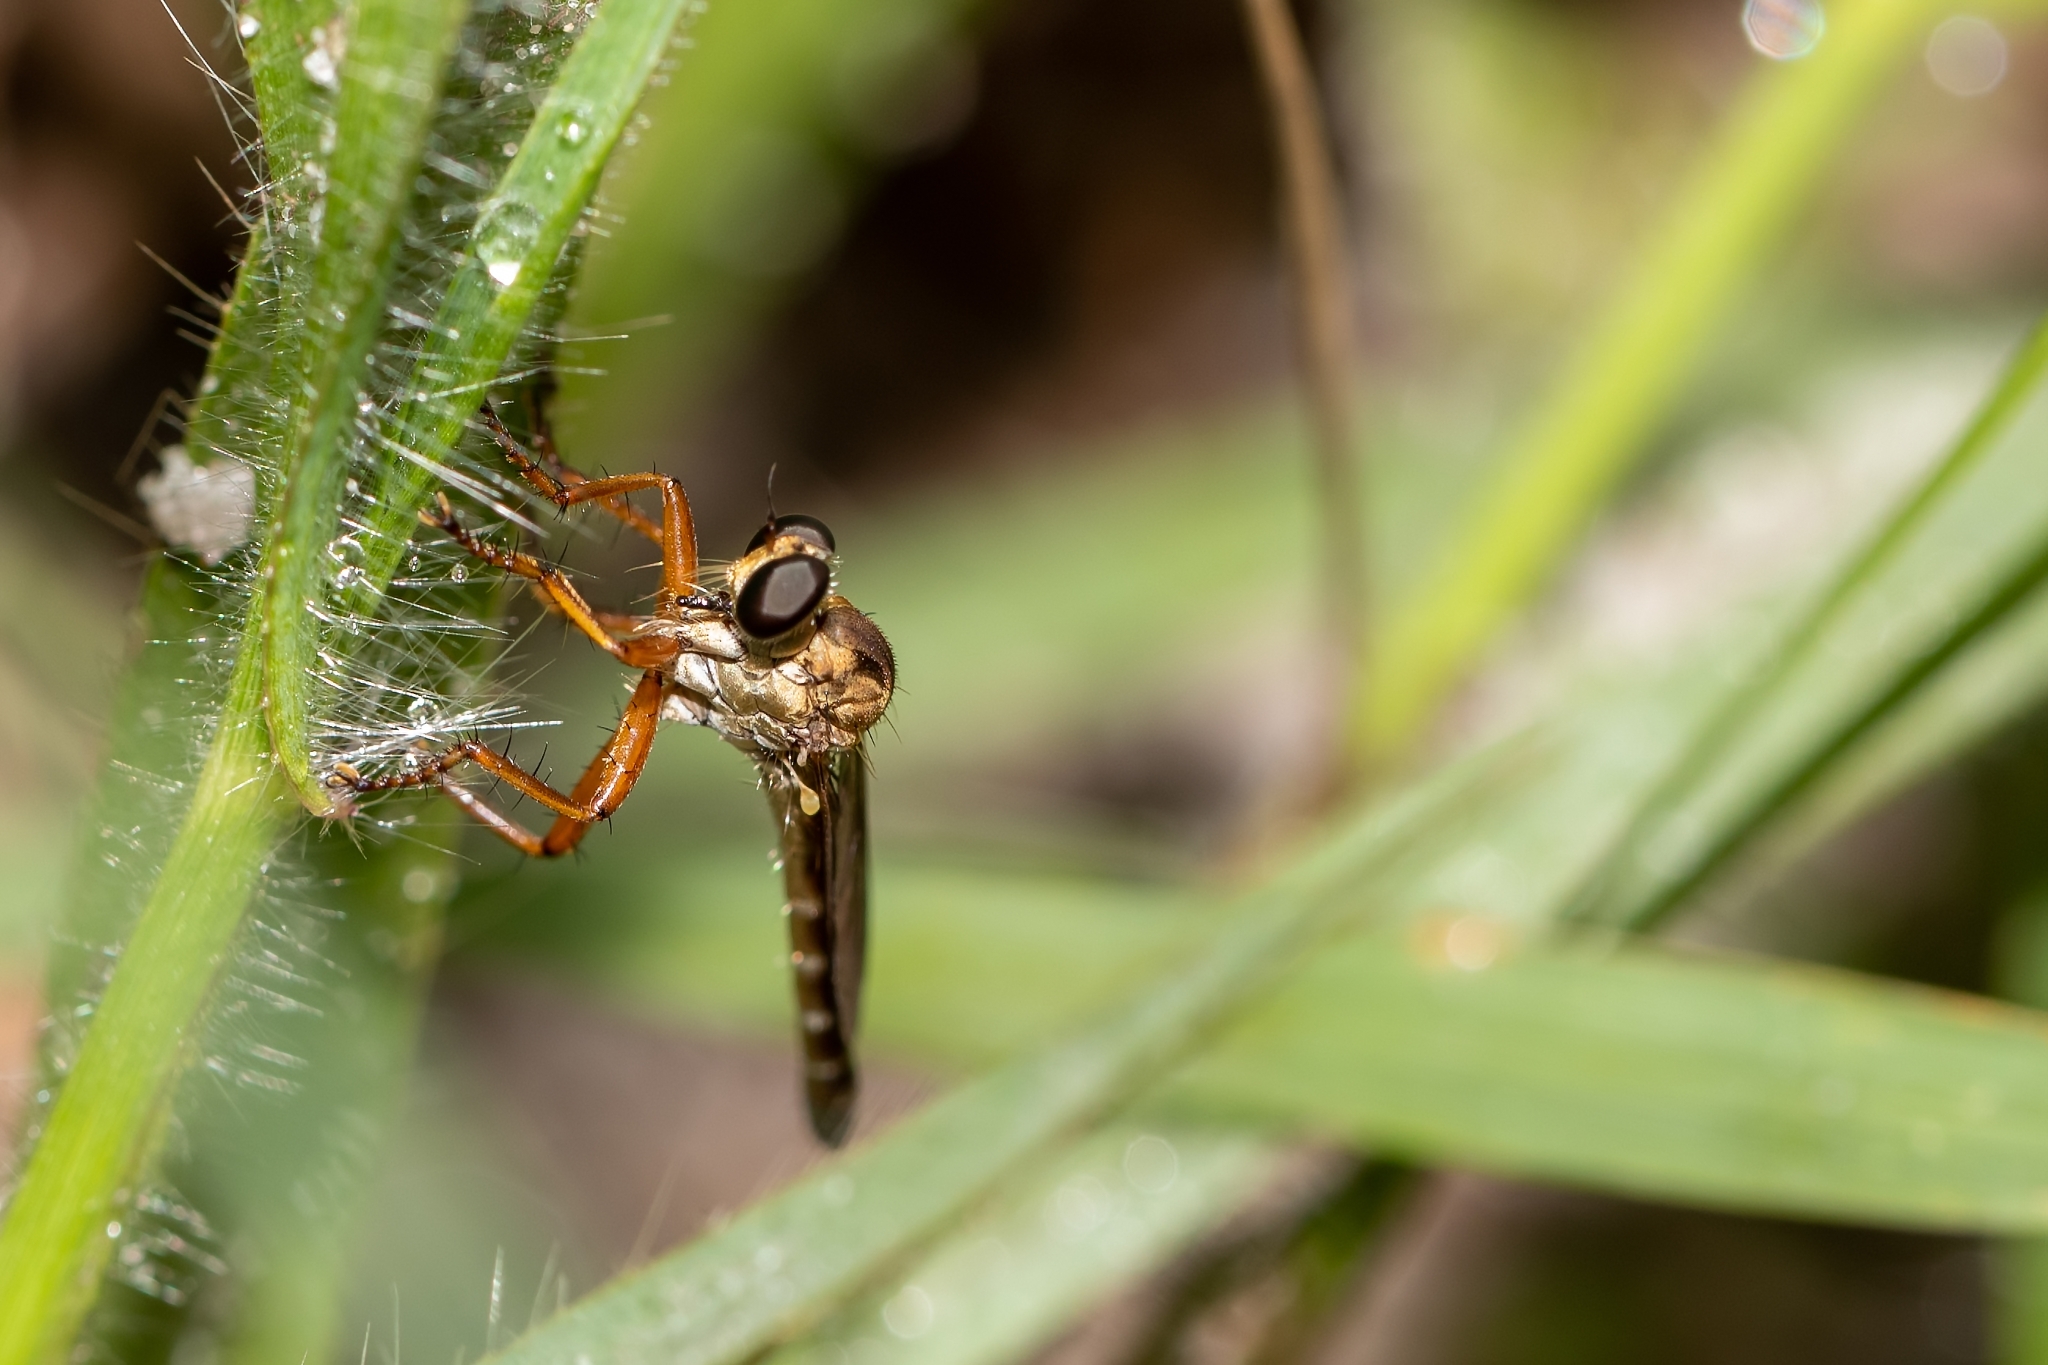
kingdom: Animalia
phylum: Arthropoda
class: Insecta
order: Diptera
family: Asilidae
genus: Polacantha
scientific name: Polacantha gracilis
